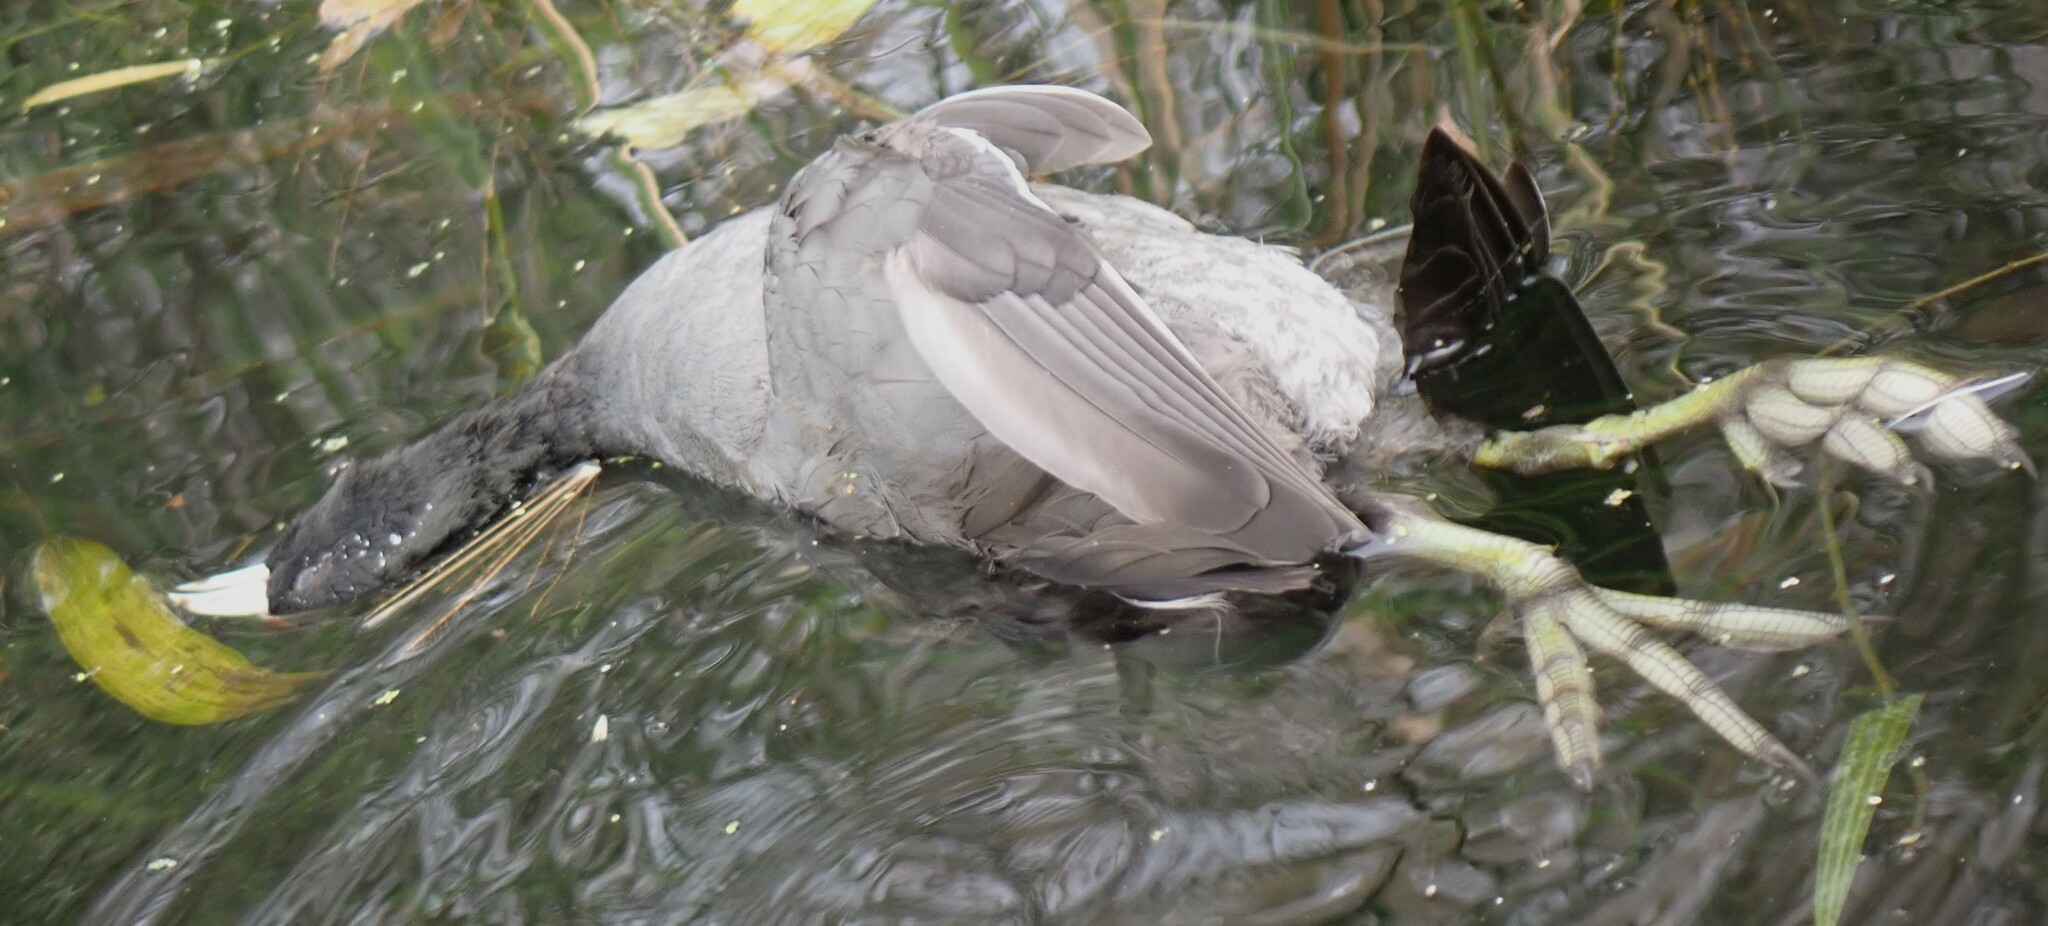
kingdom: Animalia
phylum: Chordata
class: Aves
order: Gruiformes
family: Rallidae
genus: Fulica
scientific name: Fulica americana
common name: American coot
